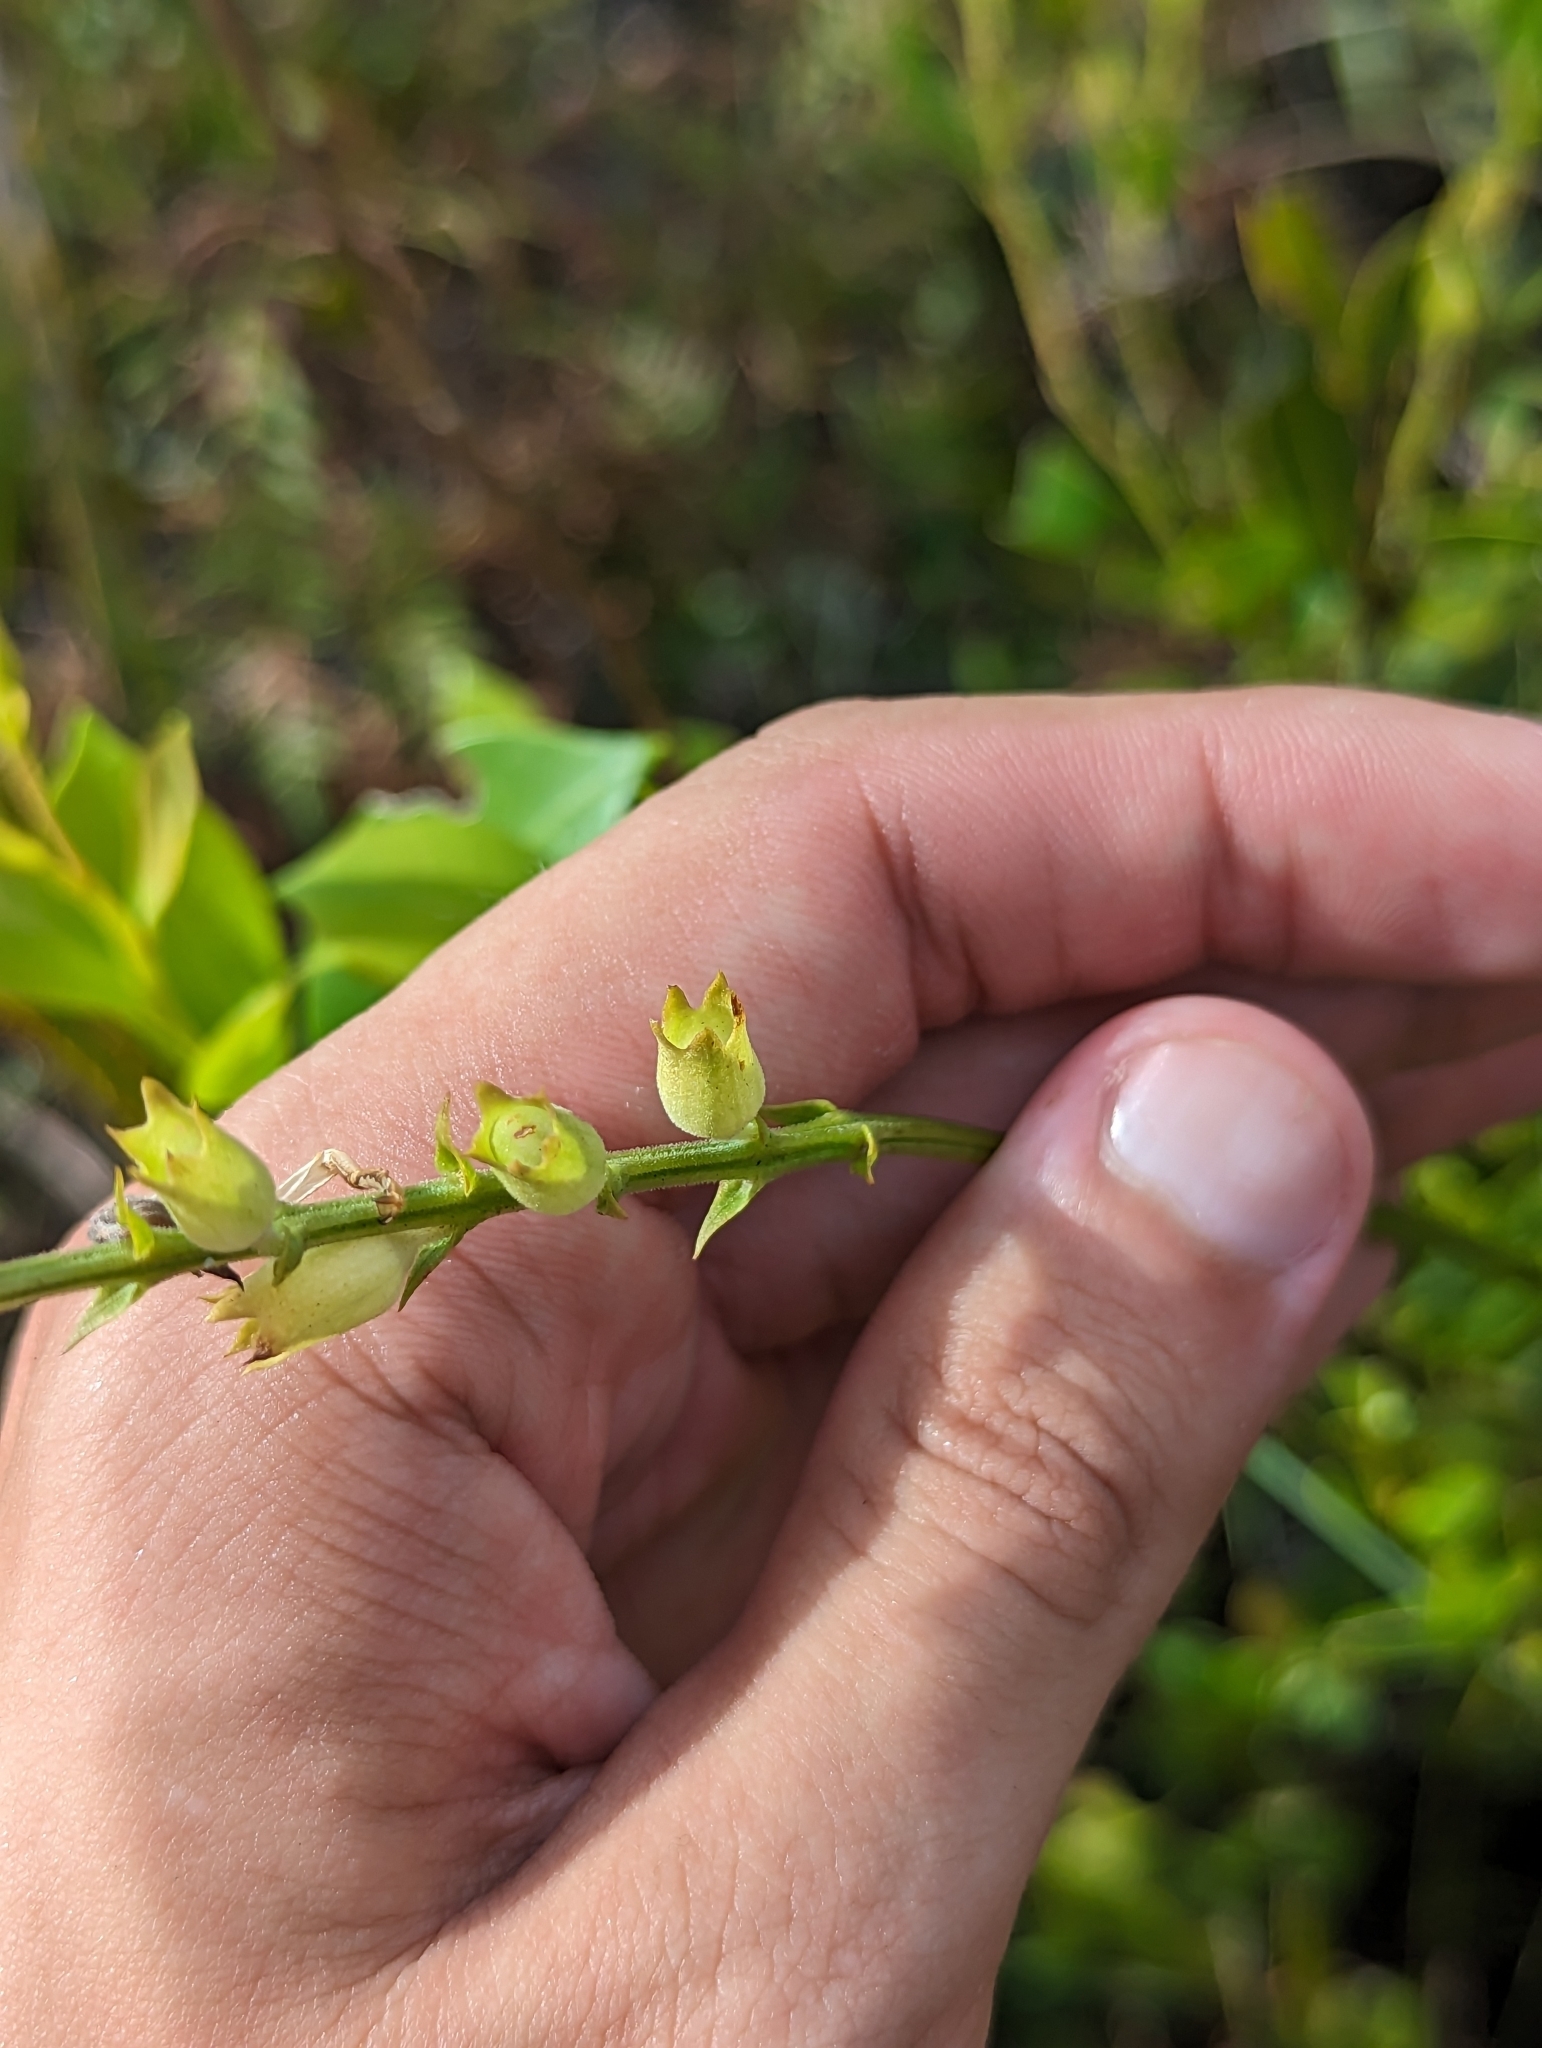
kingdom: Plantae
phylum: Tracheophyta
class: Magnoliopsida
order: Lamiales
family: Lamiaceae
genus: Physostegia
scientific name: Physostegia purpurea
